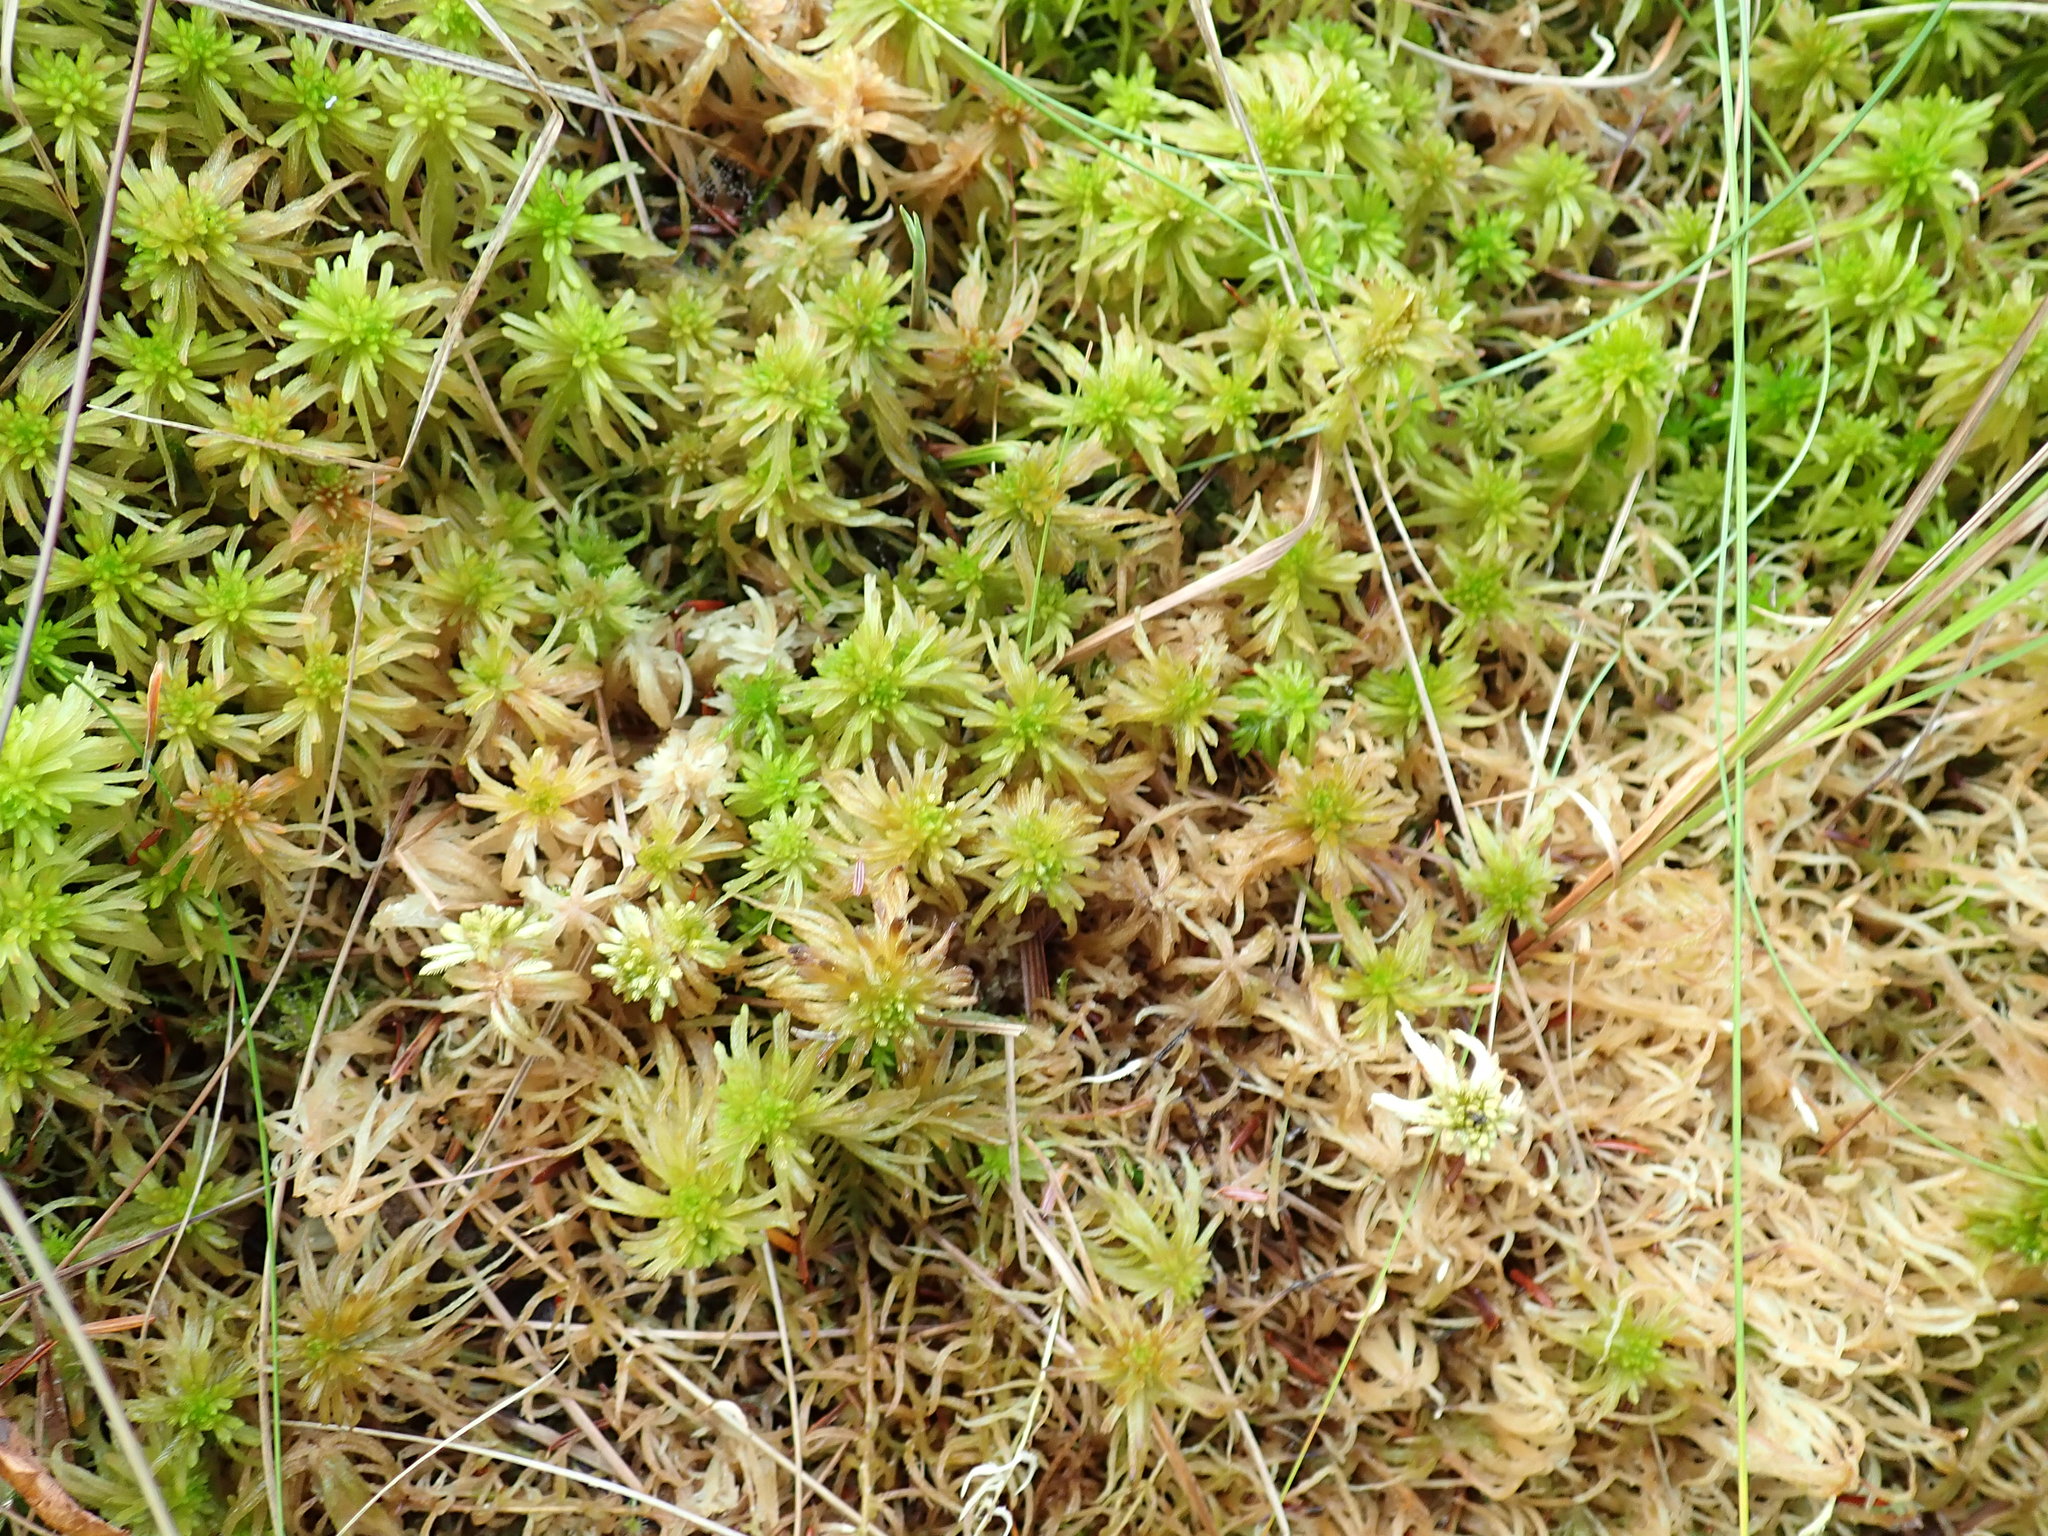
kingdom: Plantae
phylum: Bryophyta
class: Sphagnopsida
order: Sphagnales
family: Sphagnaceae
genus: Sphagnum
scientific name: Sphagnum
